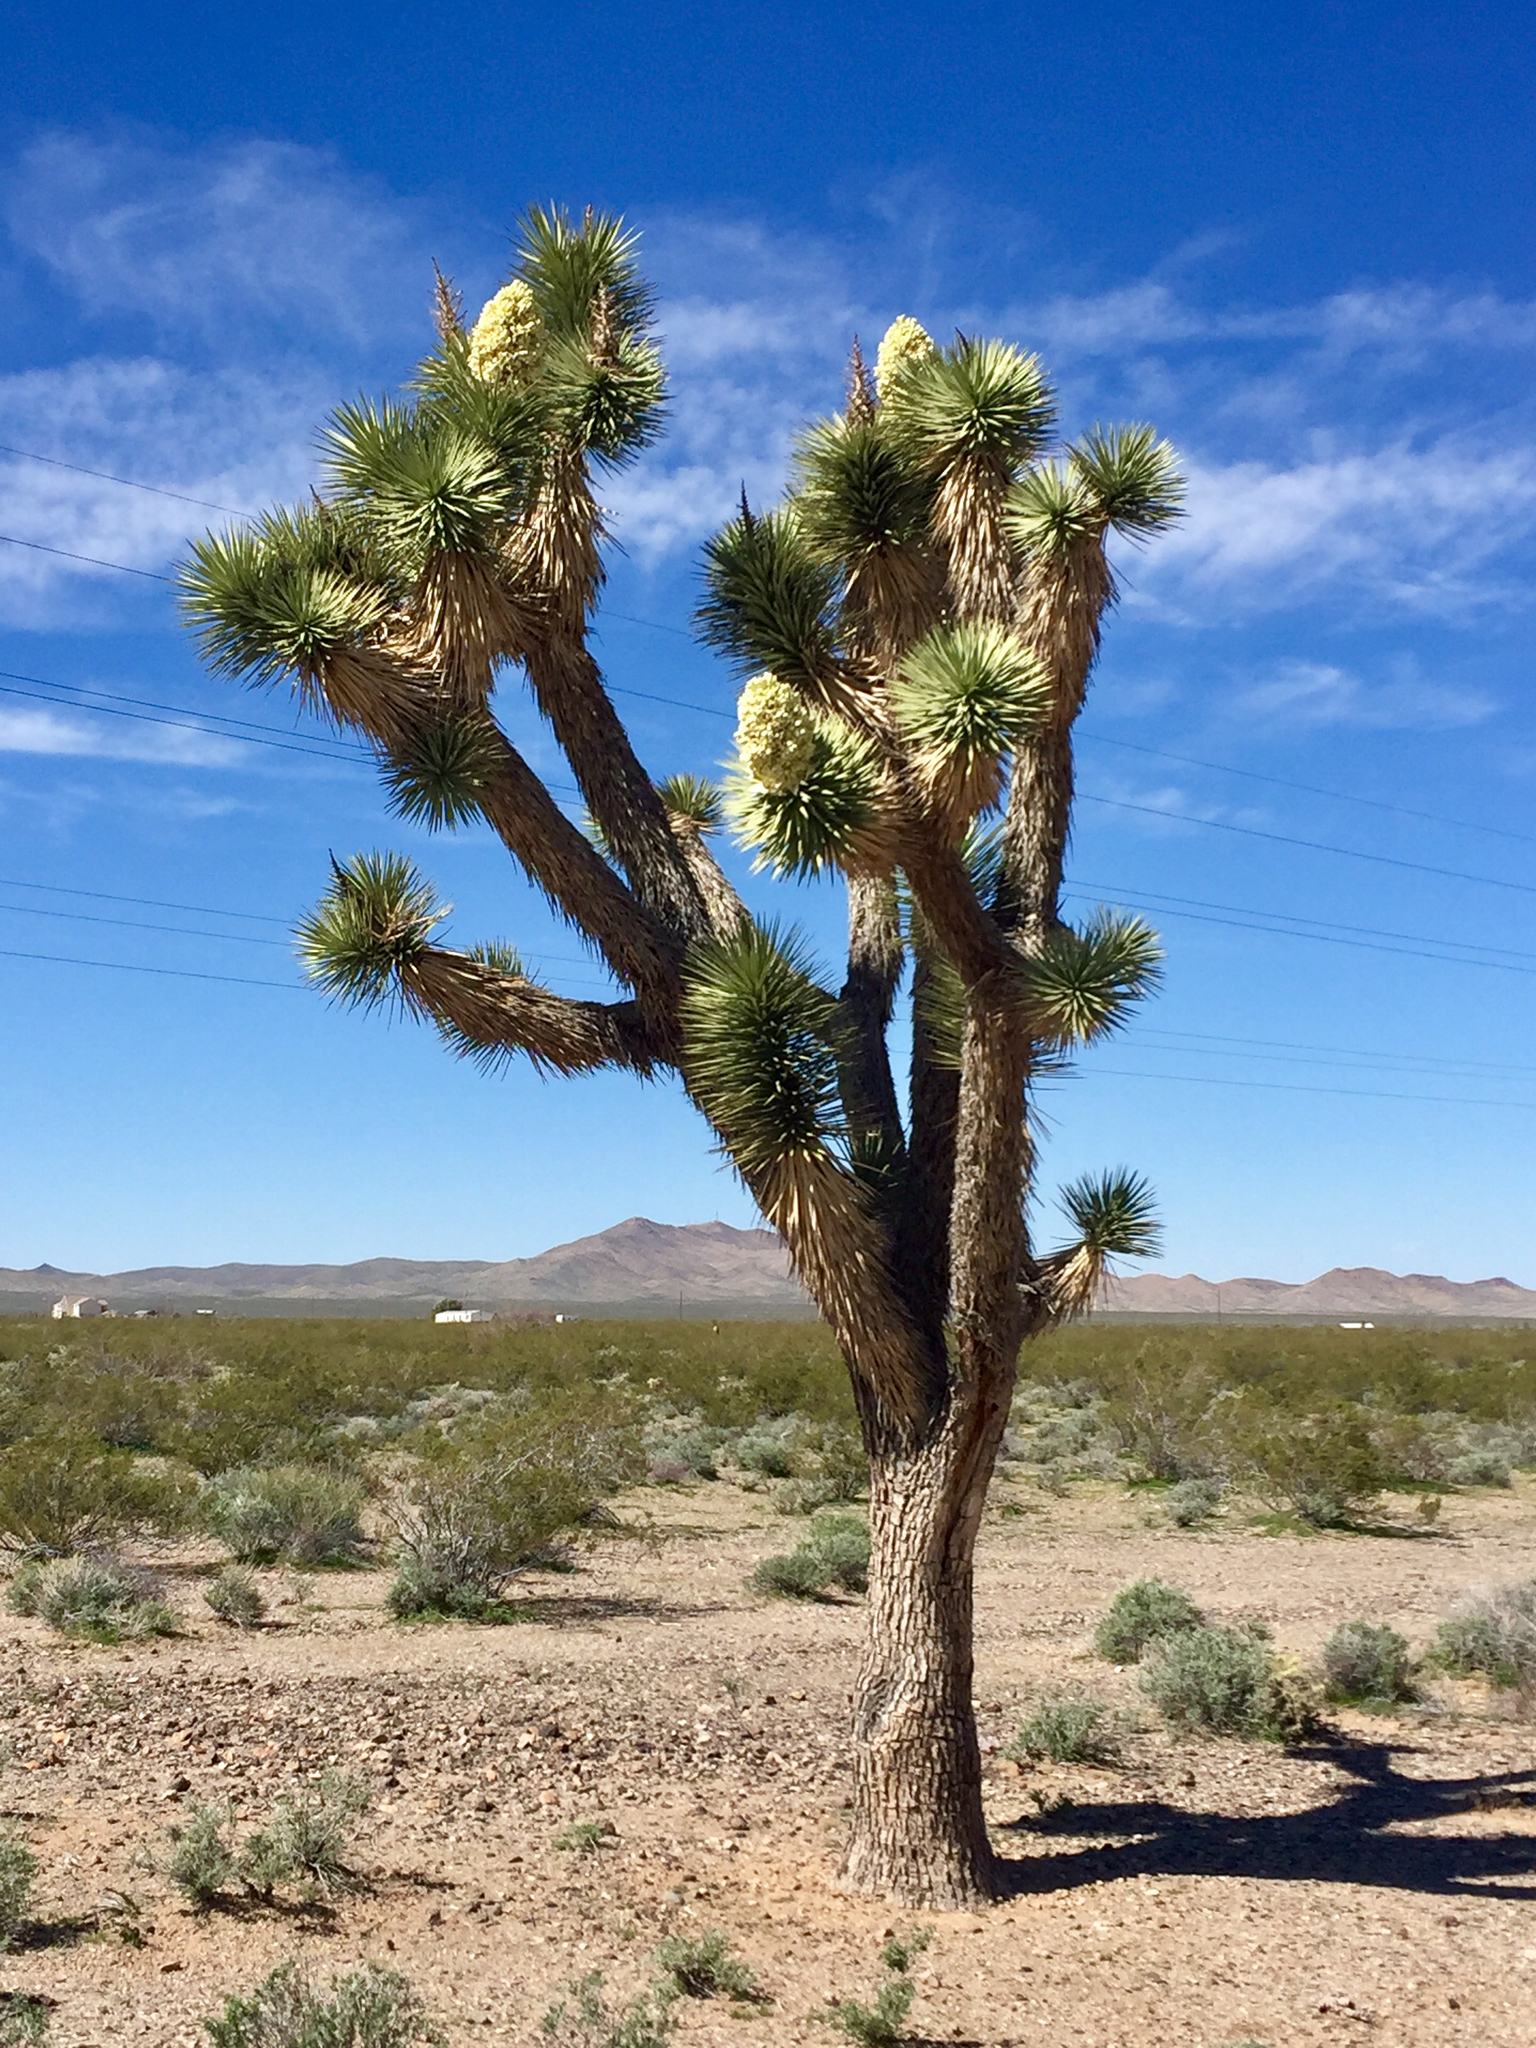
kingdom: Plantae
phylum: Tracheophyta
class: Liliopsida
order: Asparagales
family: Asparagaceae
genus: Yucca
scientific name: Yucca brevifolia
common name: Joshua tree
